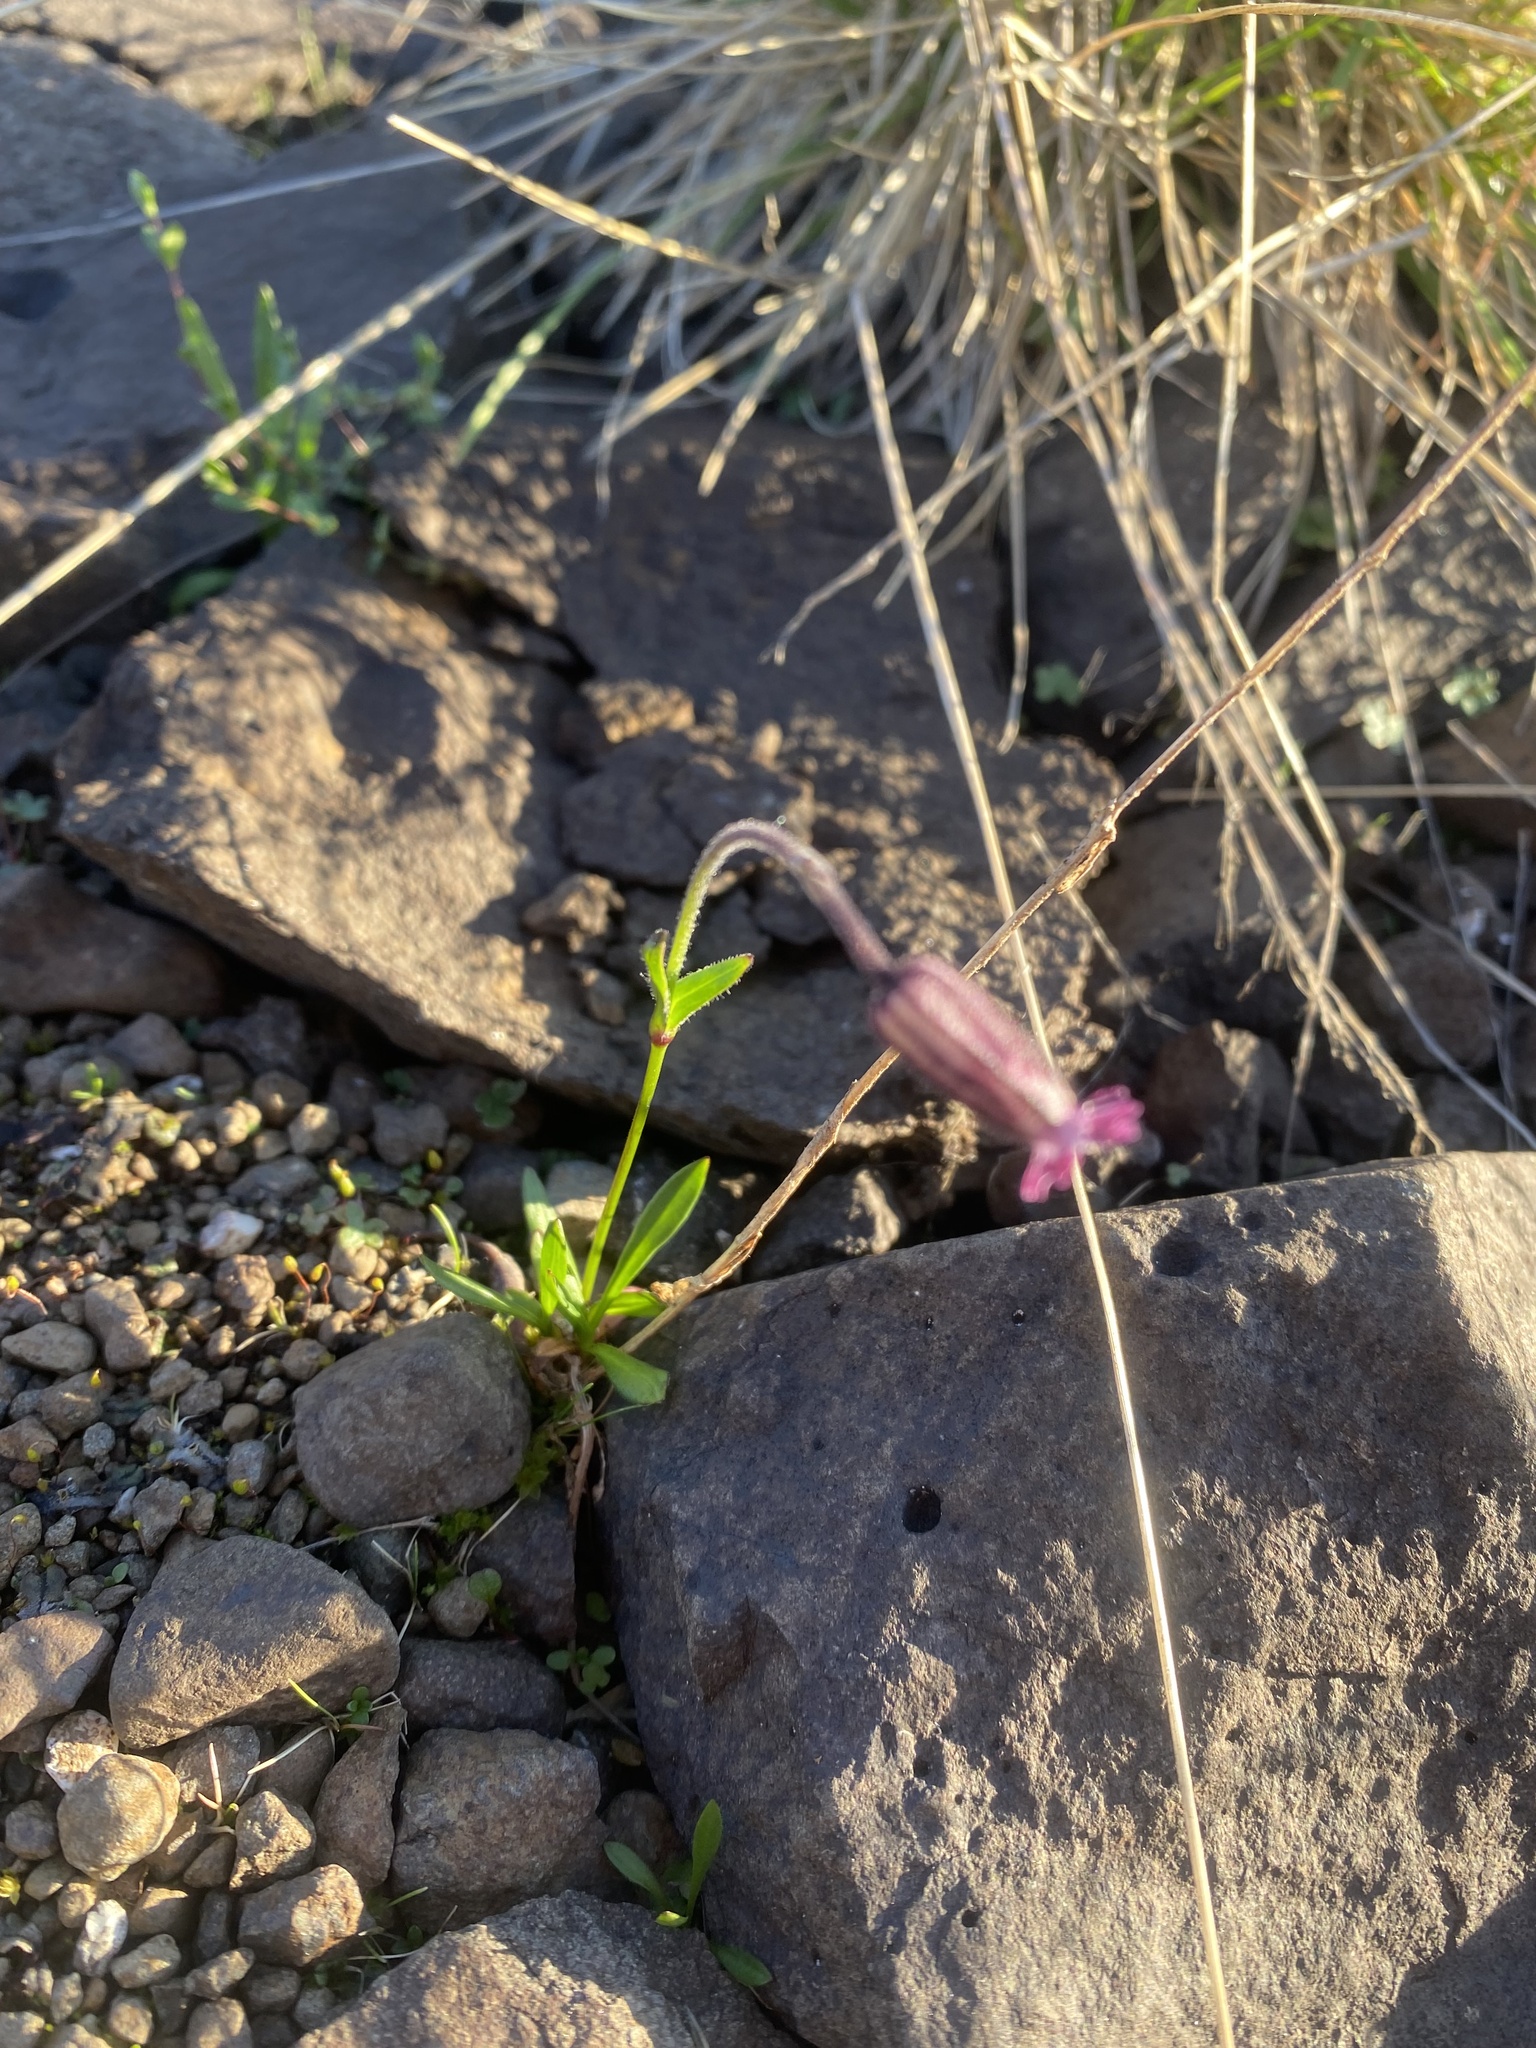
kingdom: Plantae
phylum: Tracheophyta
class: Magnoliopsida
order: Caryophyllales
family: Caryophyllaceae
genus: Silene
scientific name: Silene wahlbergella
